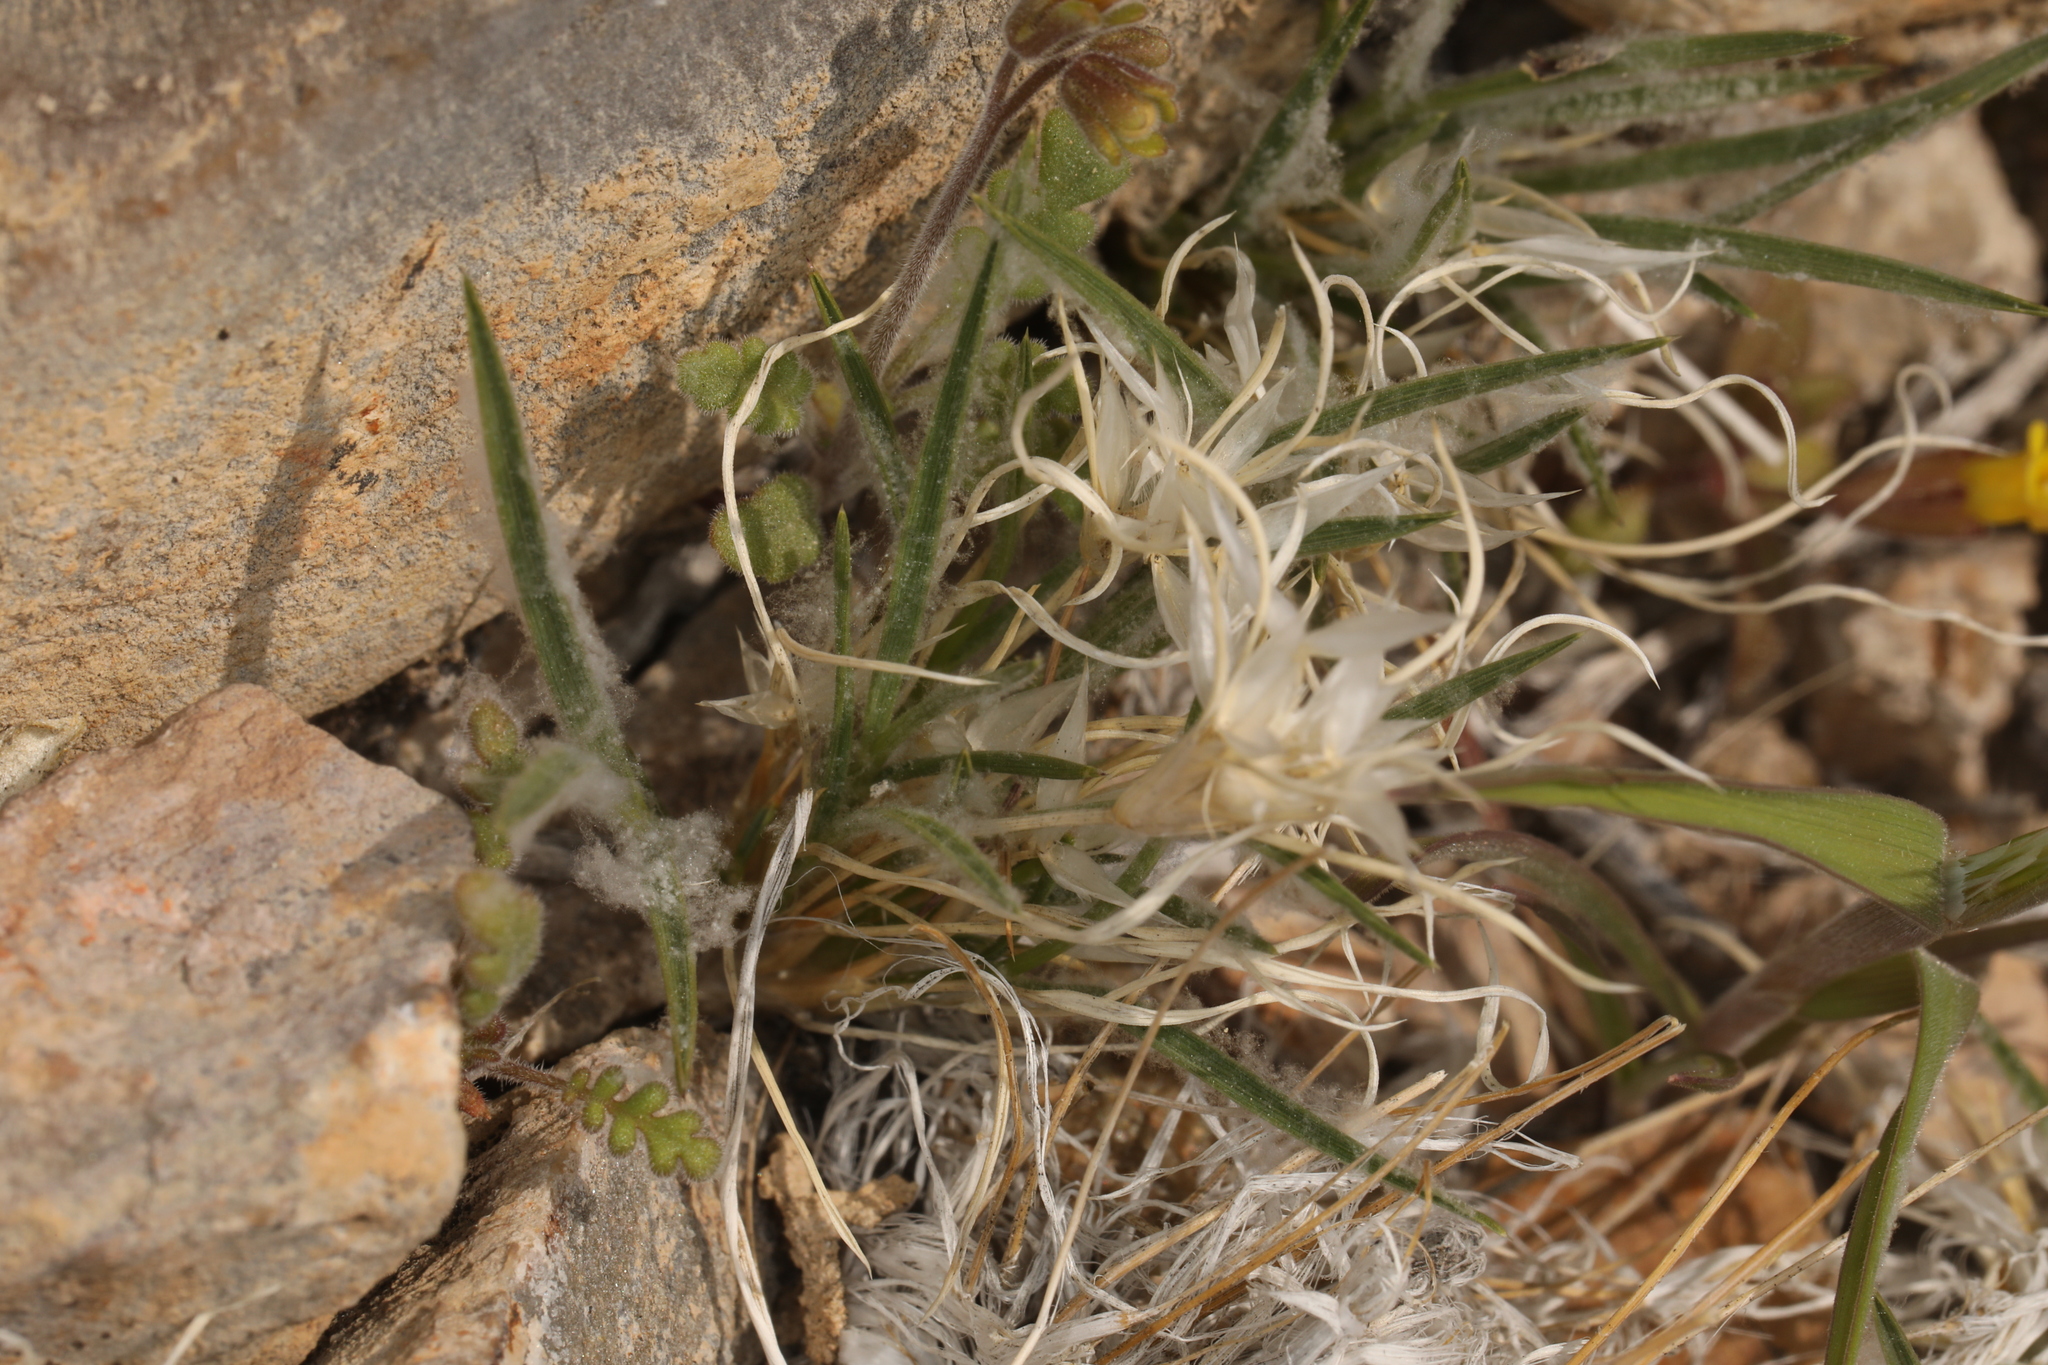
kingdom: Plantae
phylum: Tracheophyta
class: Liliopsida
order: Poales
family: Poaceae
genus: Dasyochloa
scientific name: Dasyochloa pulchella
